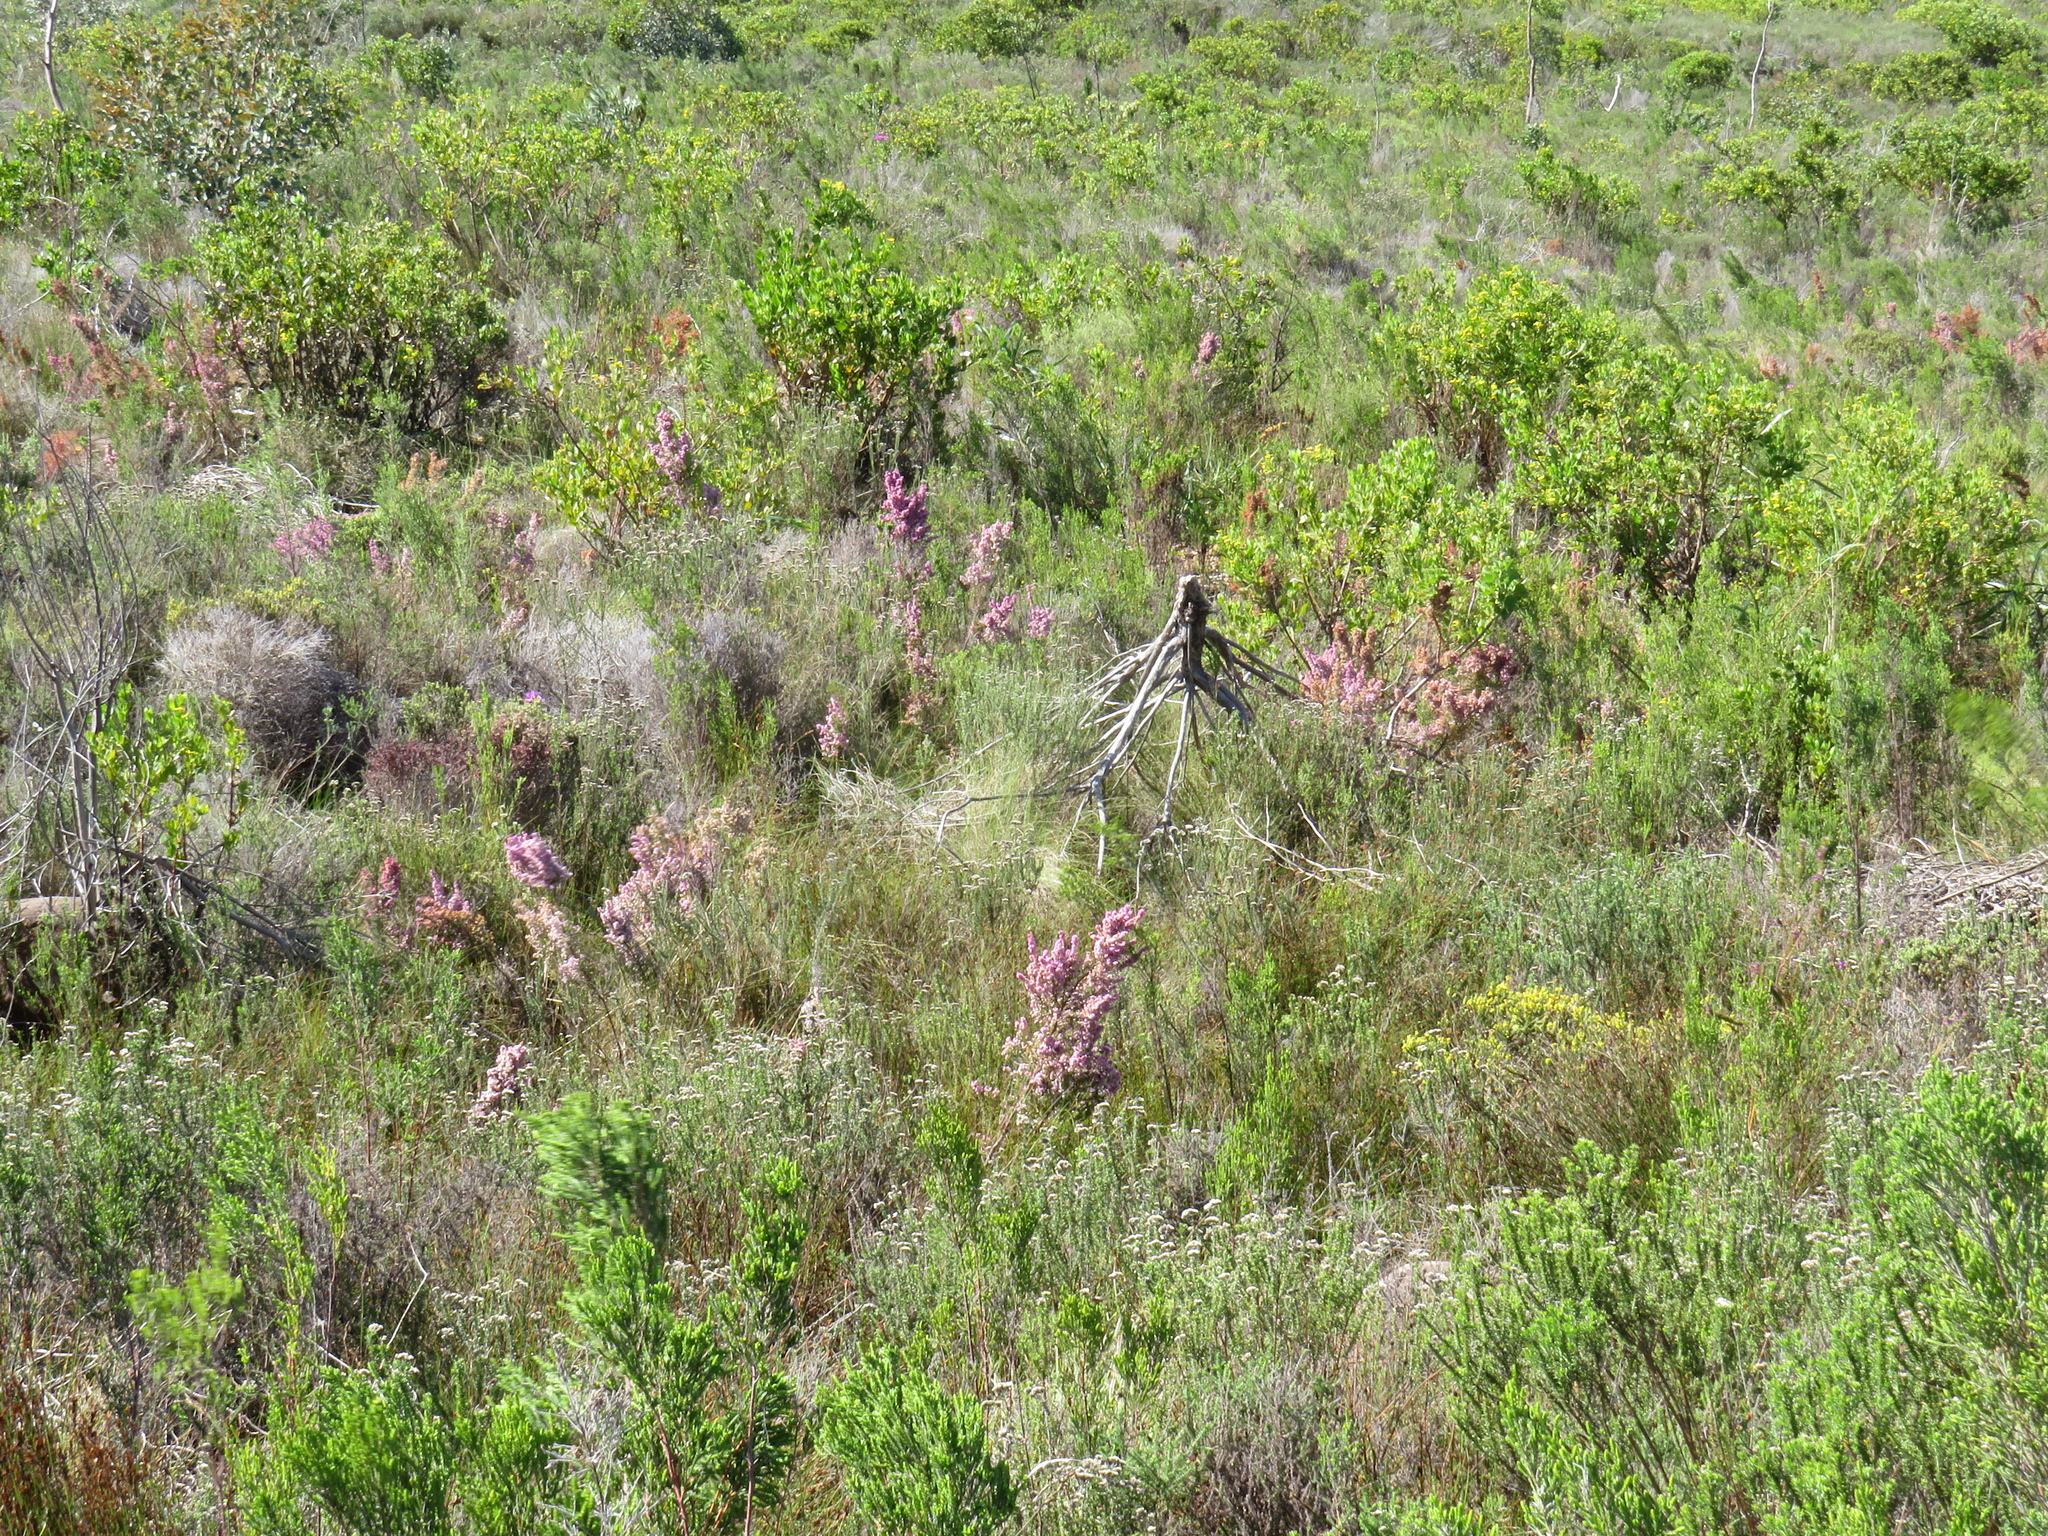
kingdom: Plantae
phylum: Tracheophyta
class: Magnoliopsida
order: Ericales
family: Ericaceae
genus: Erica
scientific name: Erica mauritanica
